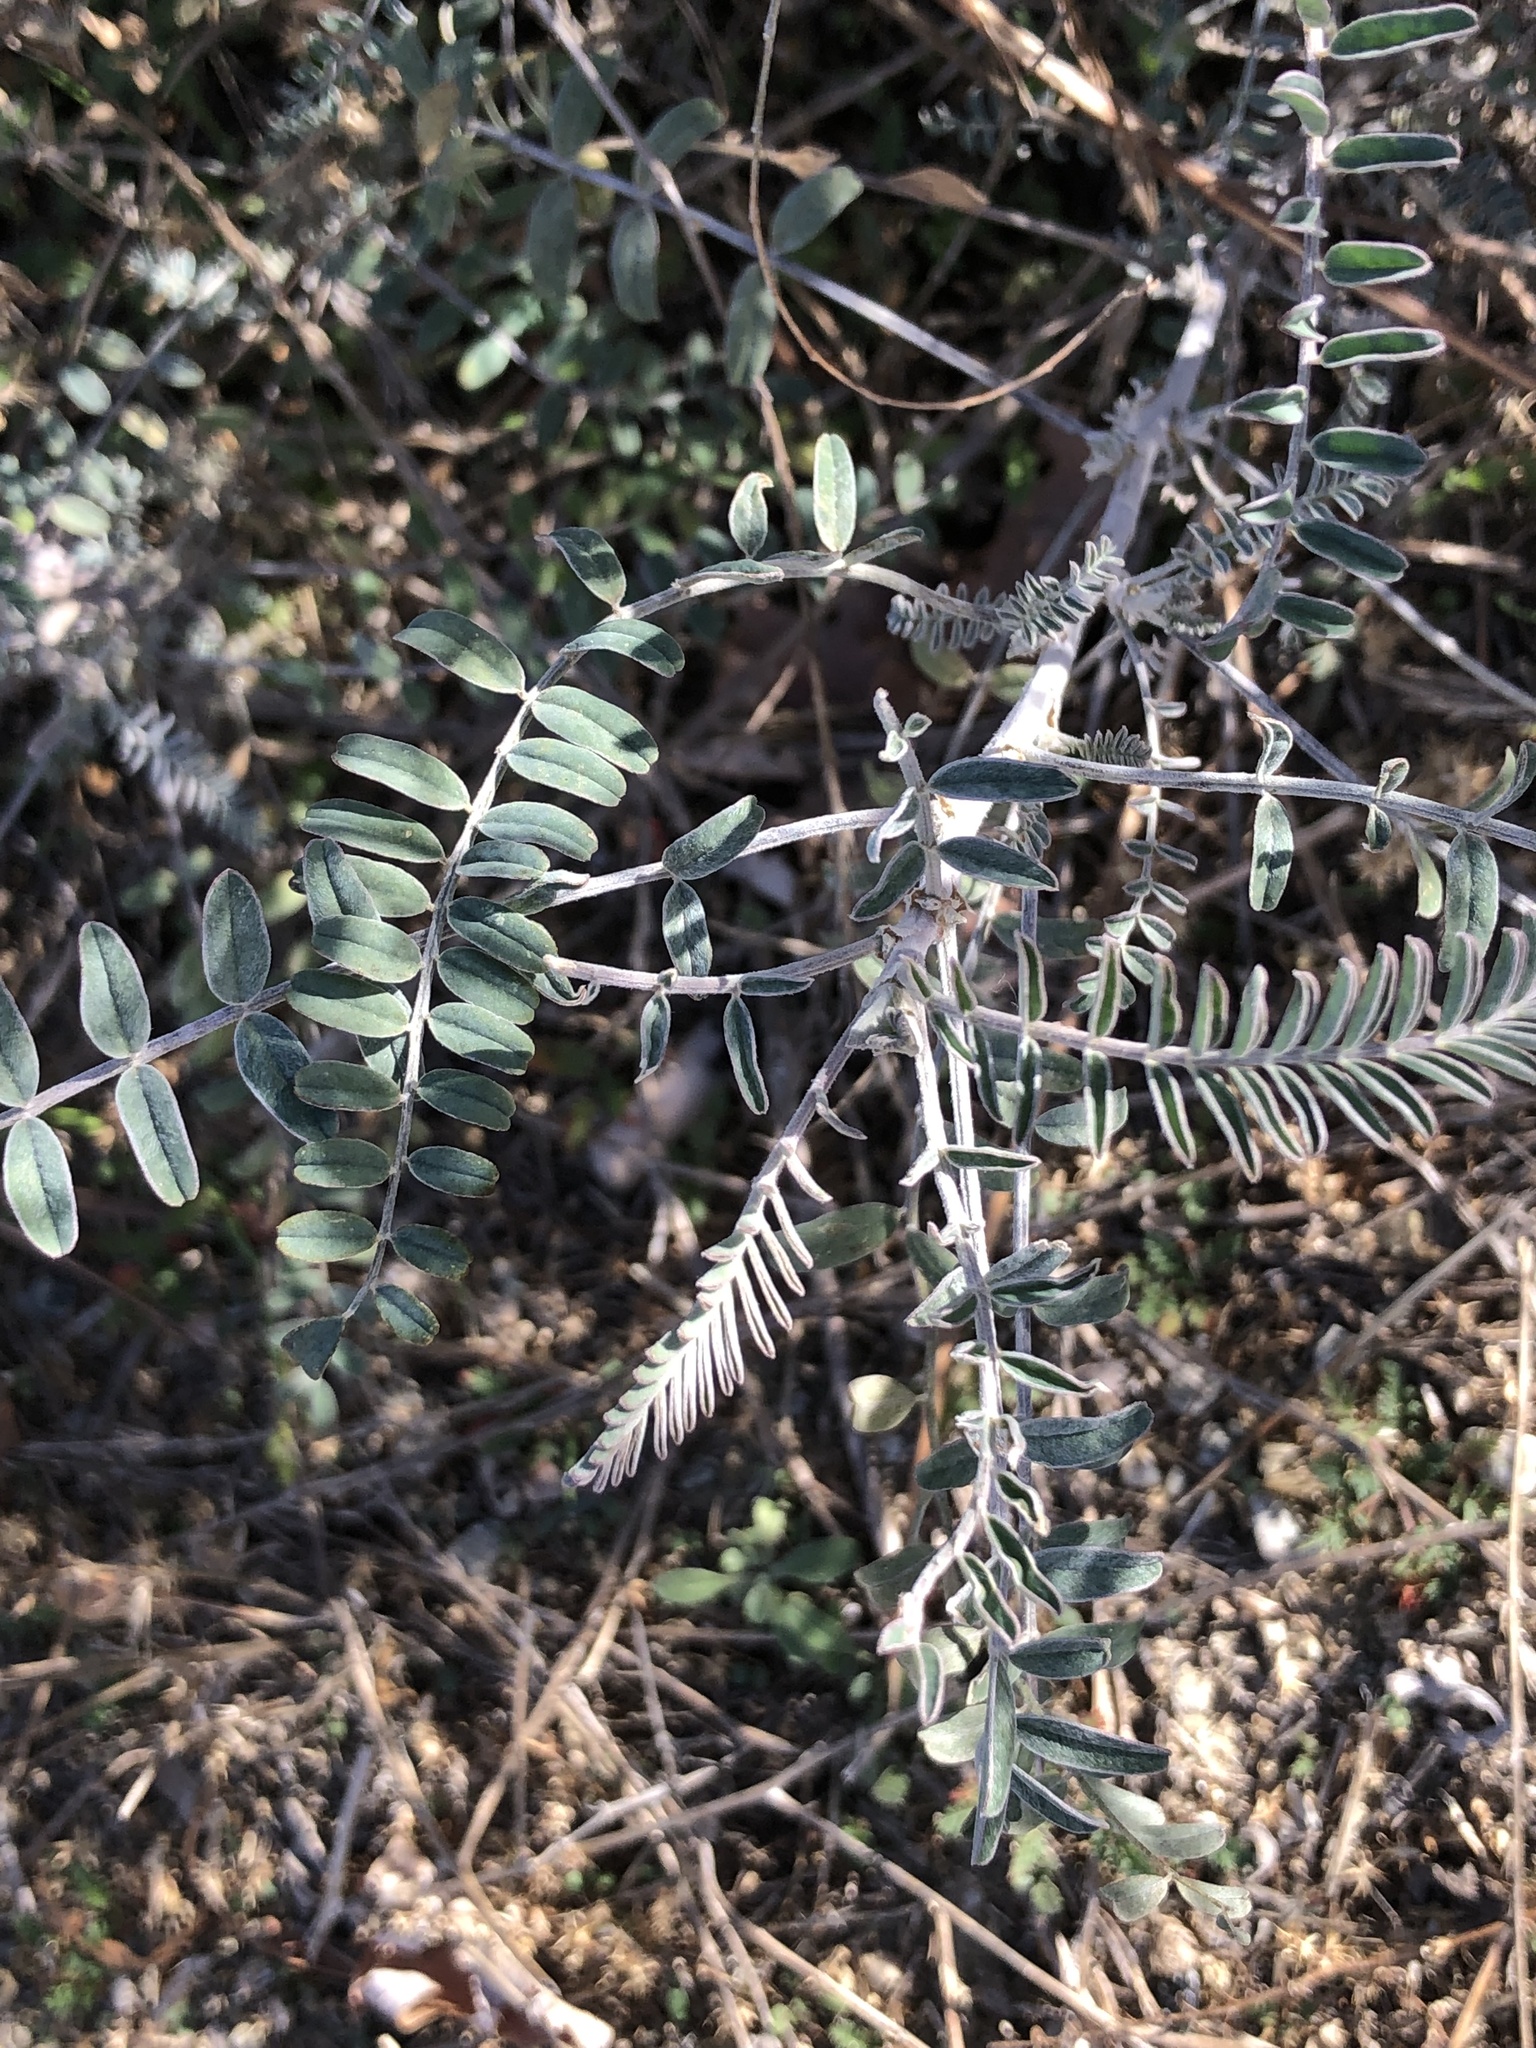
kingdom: Plantae
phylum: Tracheophyta
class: Magnoliopsida
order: Fabales
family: Fabaceae
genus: Astragalus
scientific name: Astragalus trichopodus
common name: Santa barbara milk-vetch
